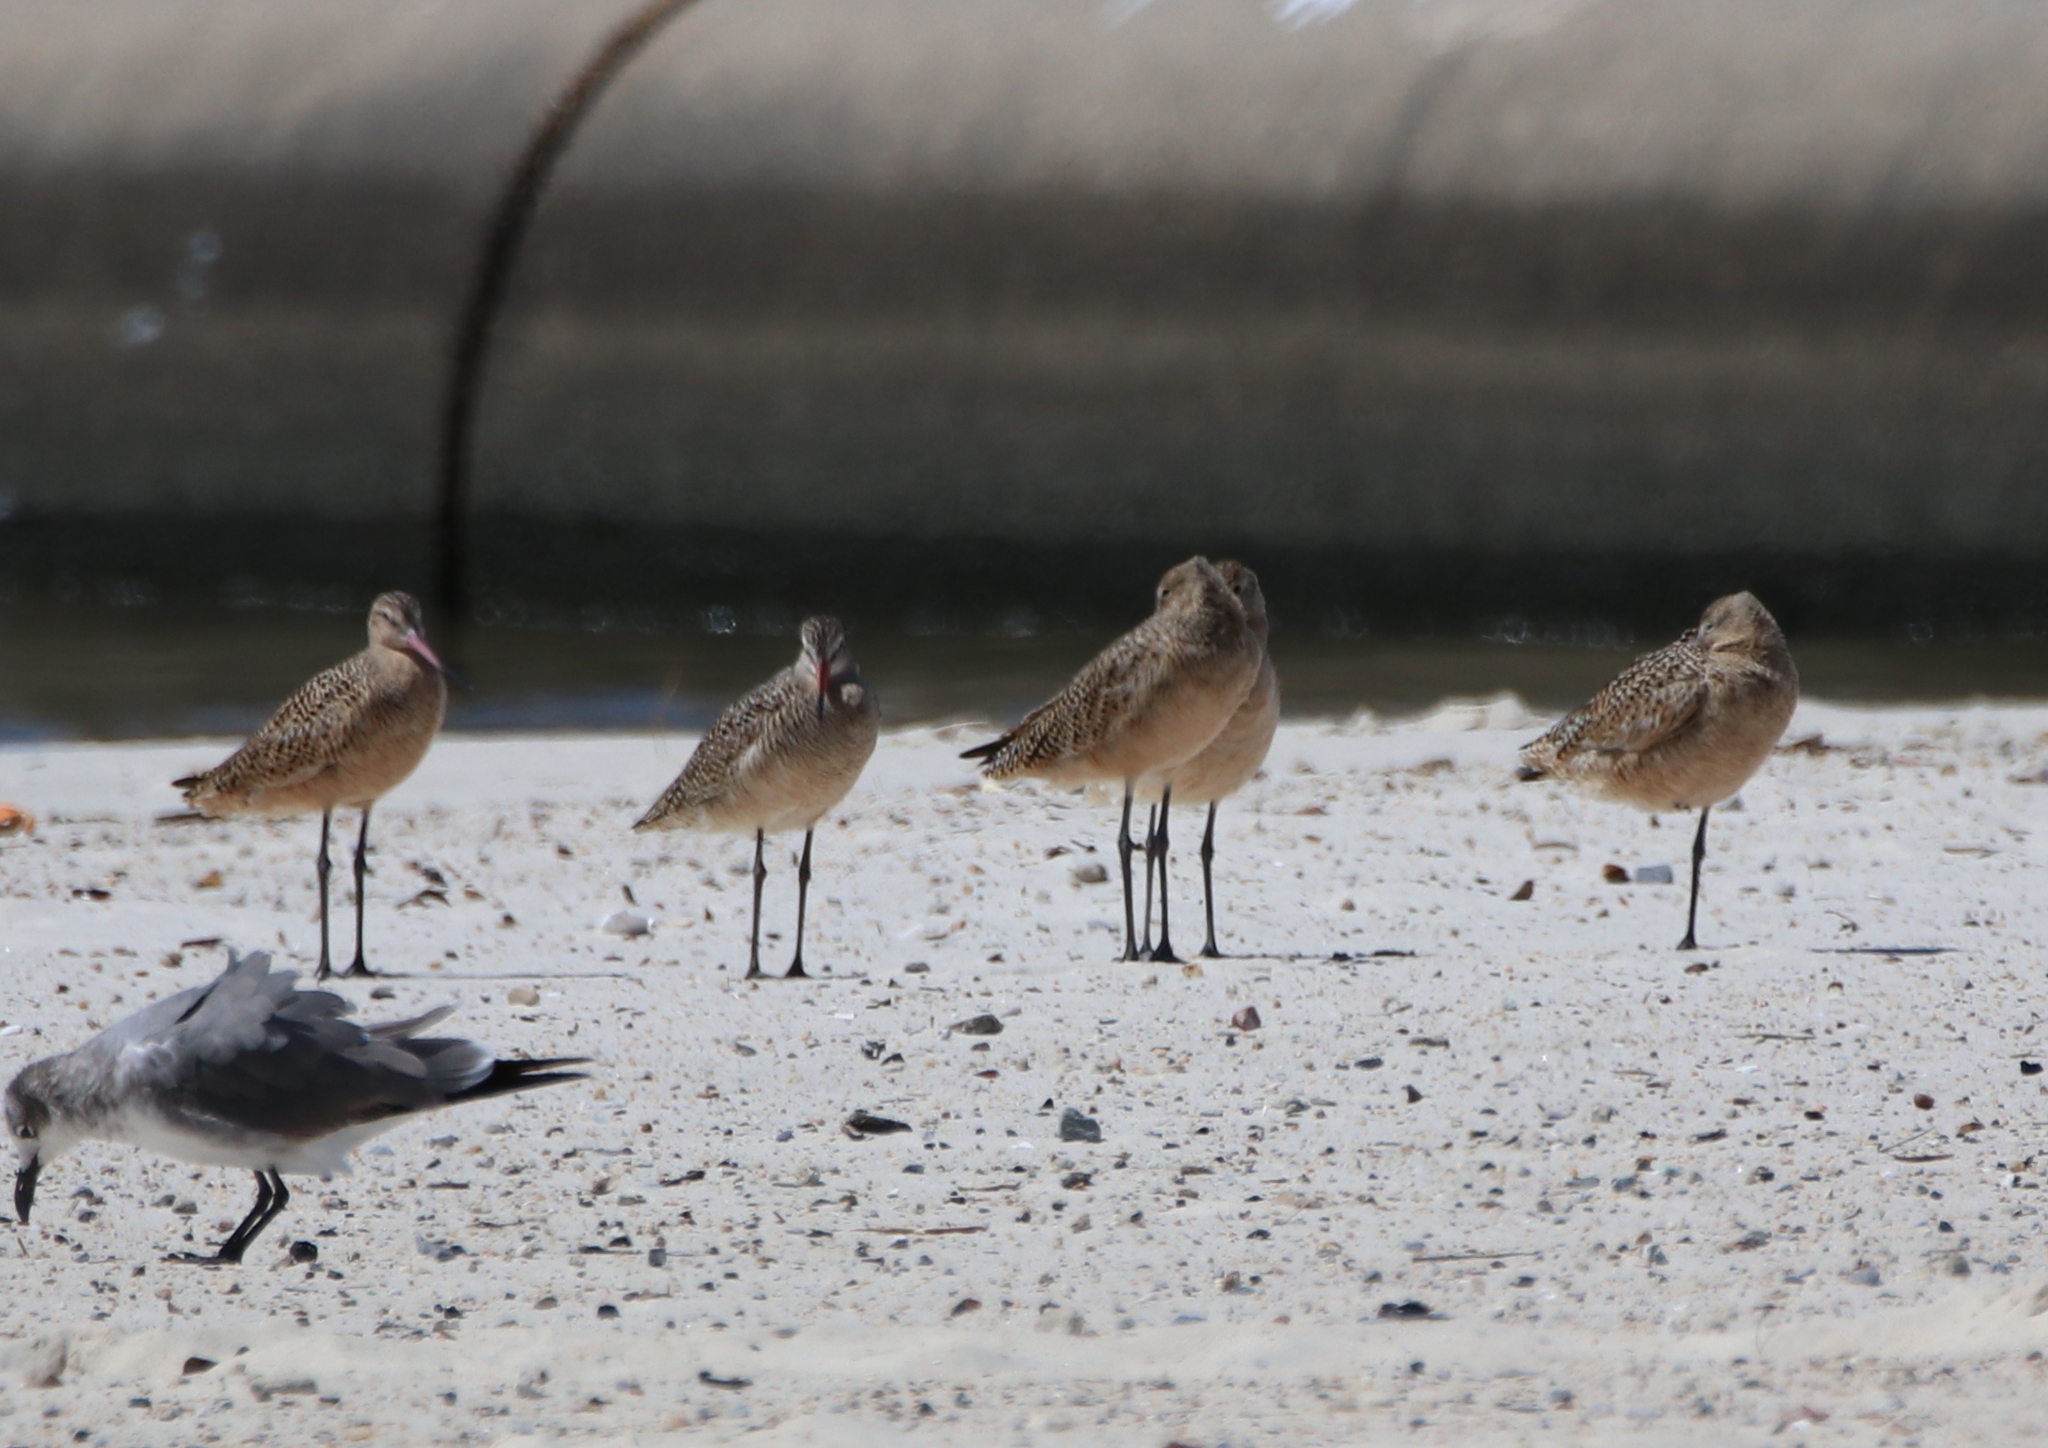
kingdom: Animalia
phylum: Chordata
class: Aves
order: Charadriiformes
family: Scolopacidae
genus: Limosa
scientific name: Limosa fedoa
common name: Marbled godwit
